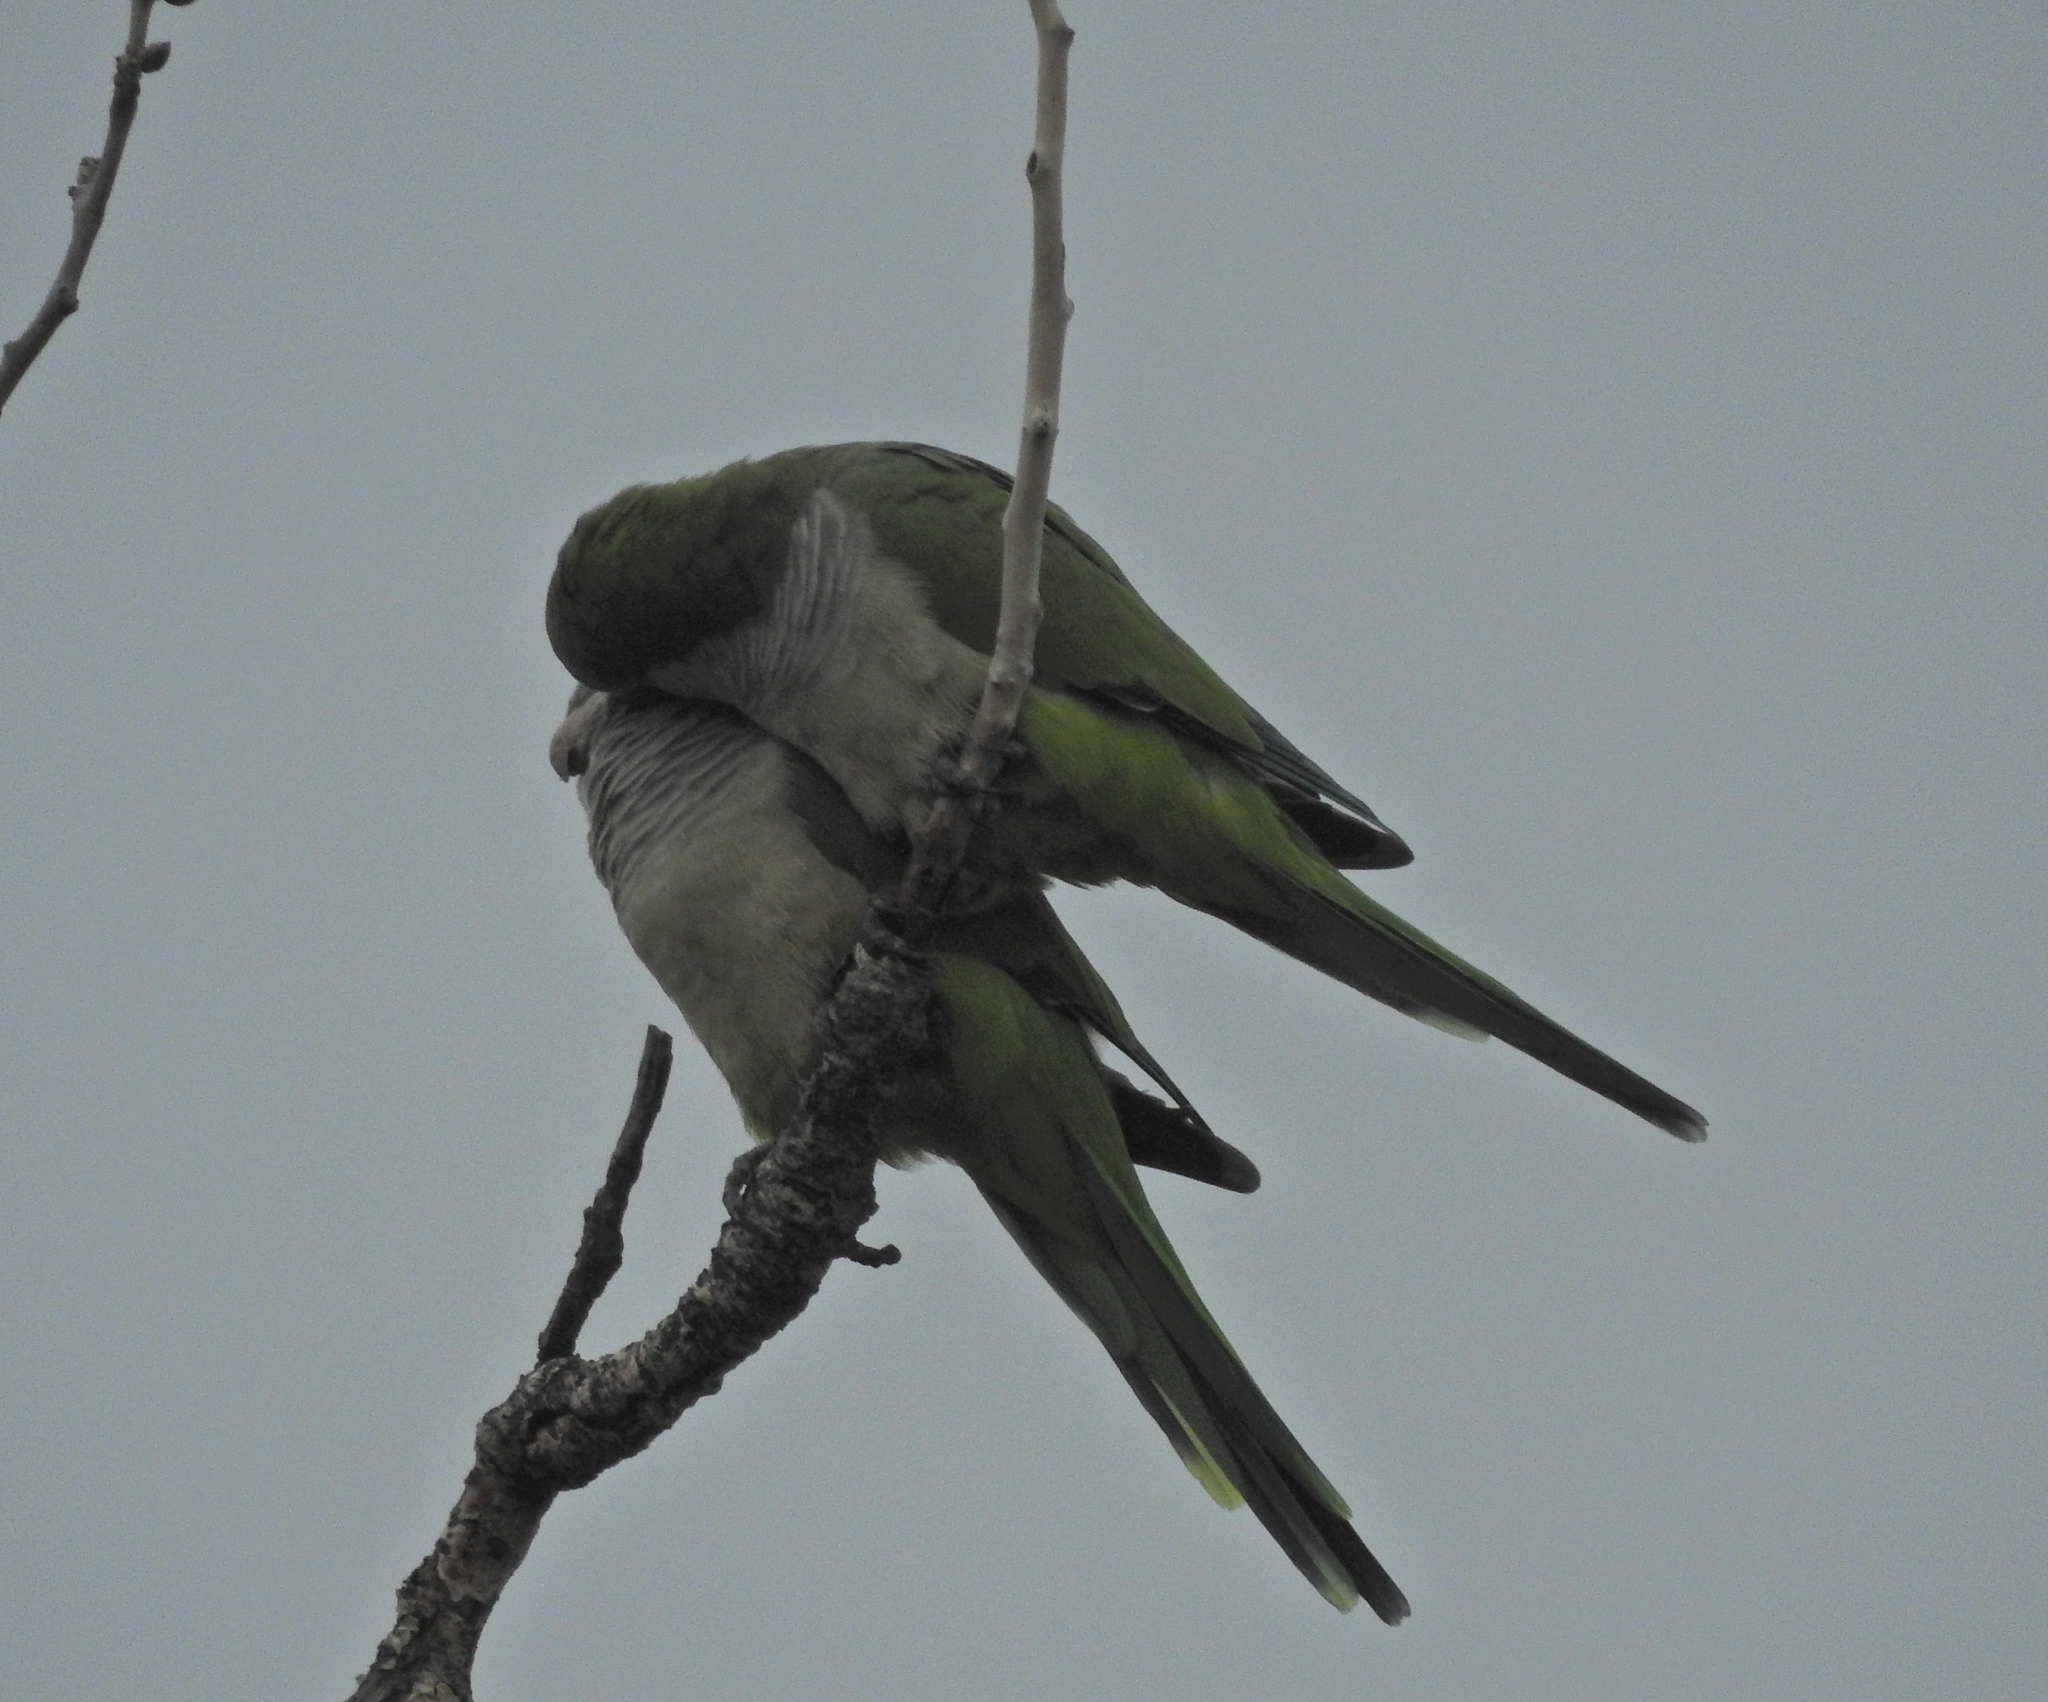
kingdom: Animalia
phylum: Chordata
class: Aves
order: Psittaciformes
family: Psittacidae
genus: Myiopsitta
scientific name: Myiopsitta monachus
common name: Monk parakeet
